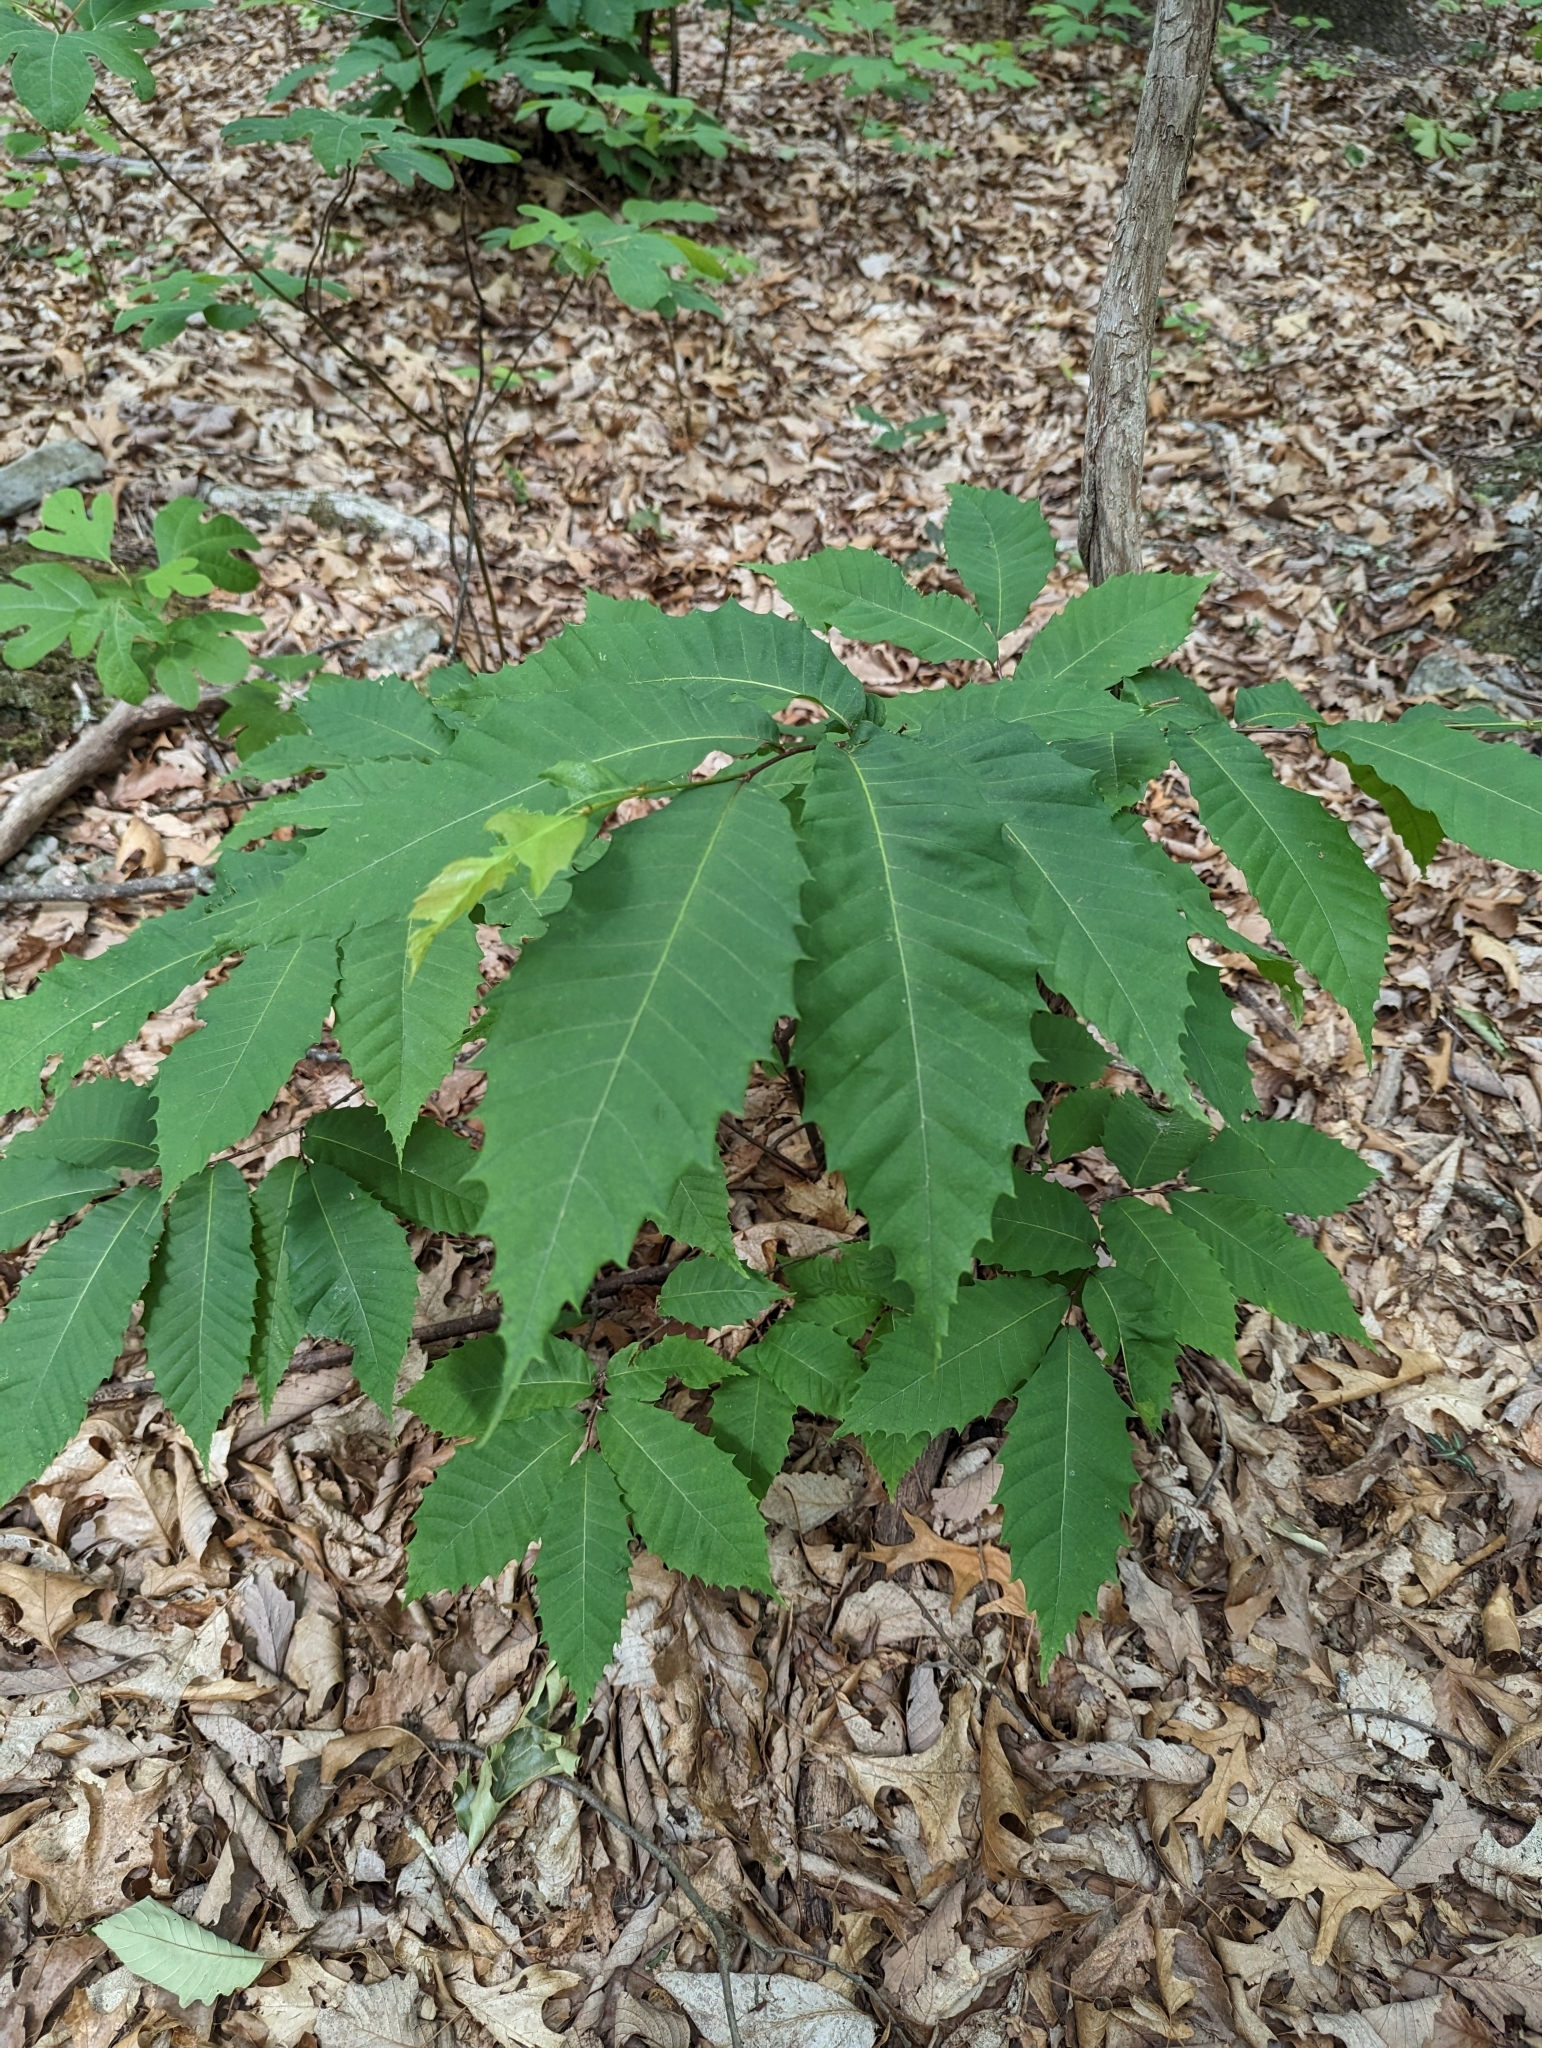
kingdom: Plantae
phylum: Tracheophyta
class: Magnoliopsida
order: Fagales
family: Fagaceae
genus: Castanea
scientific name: Castanea dentata
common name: American chestnut
